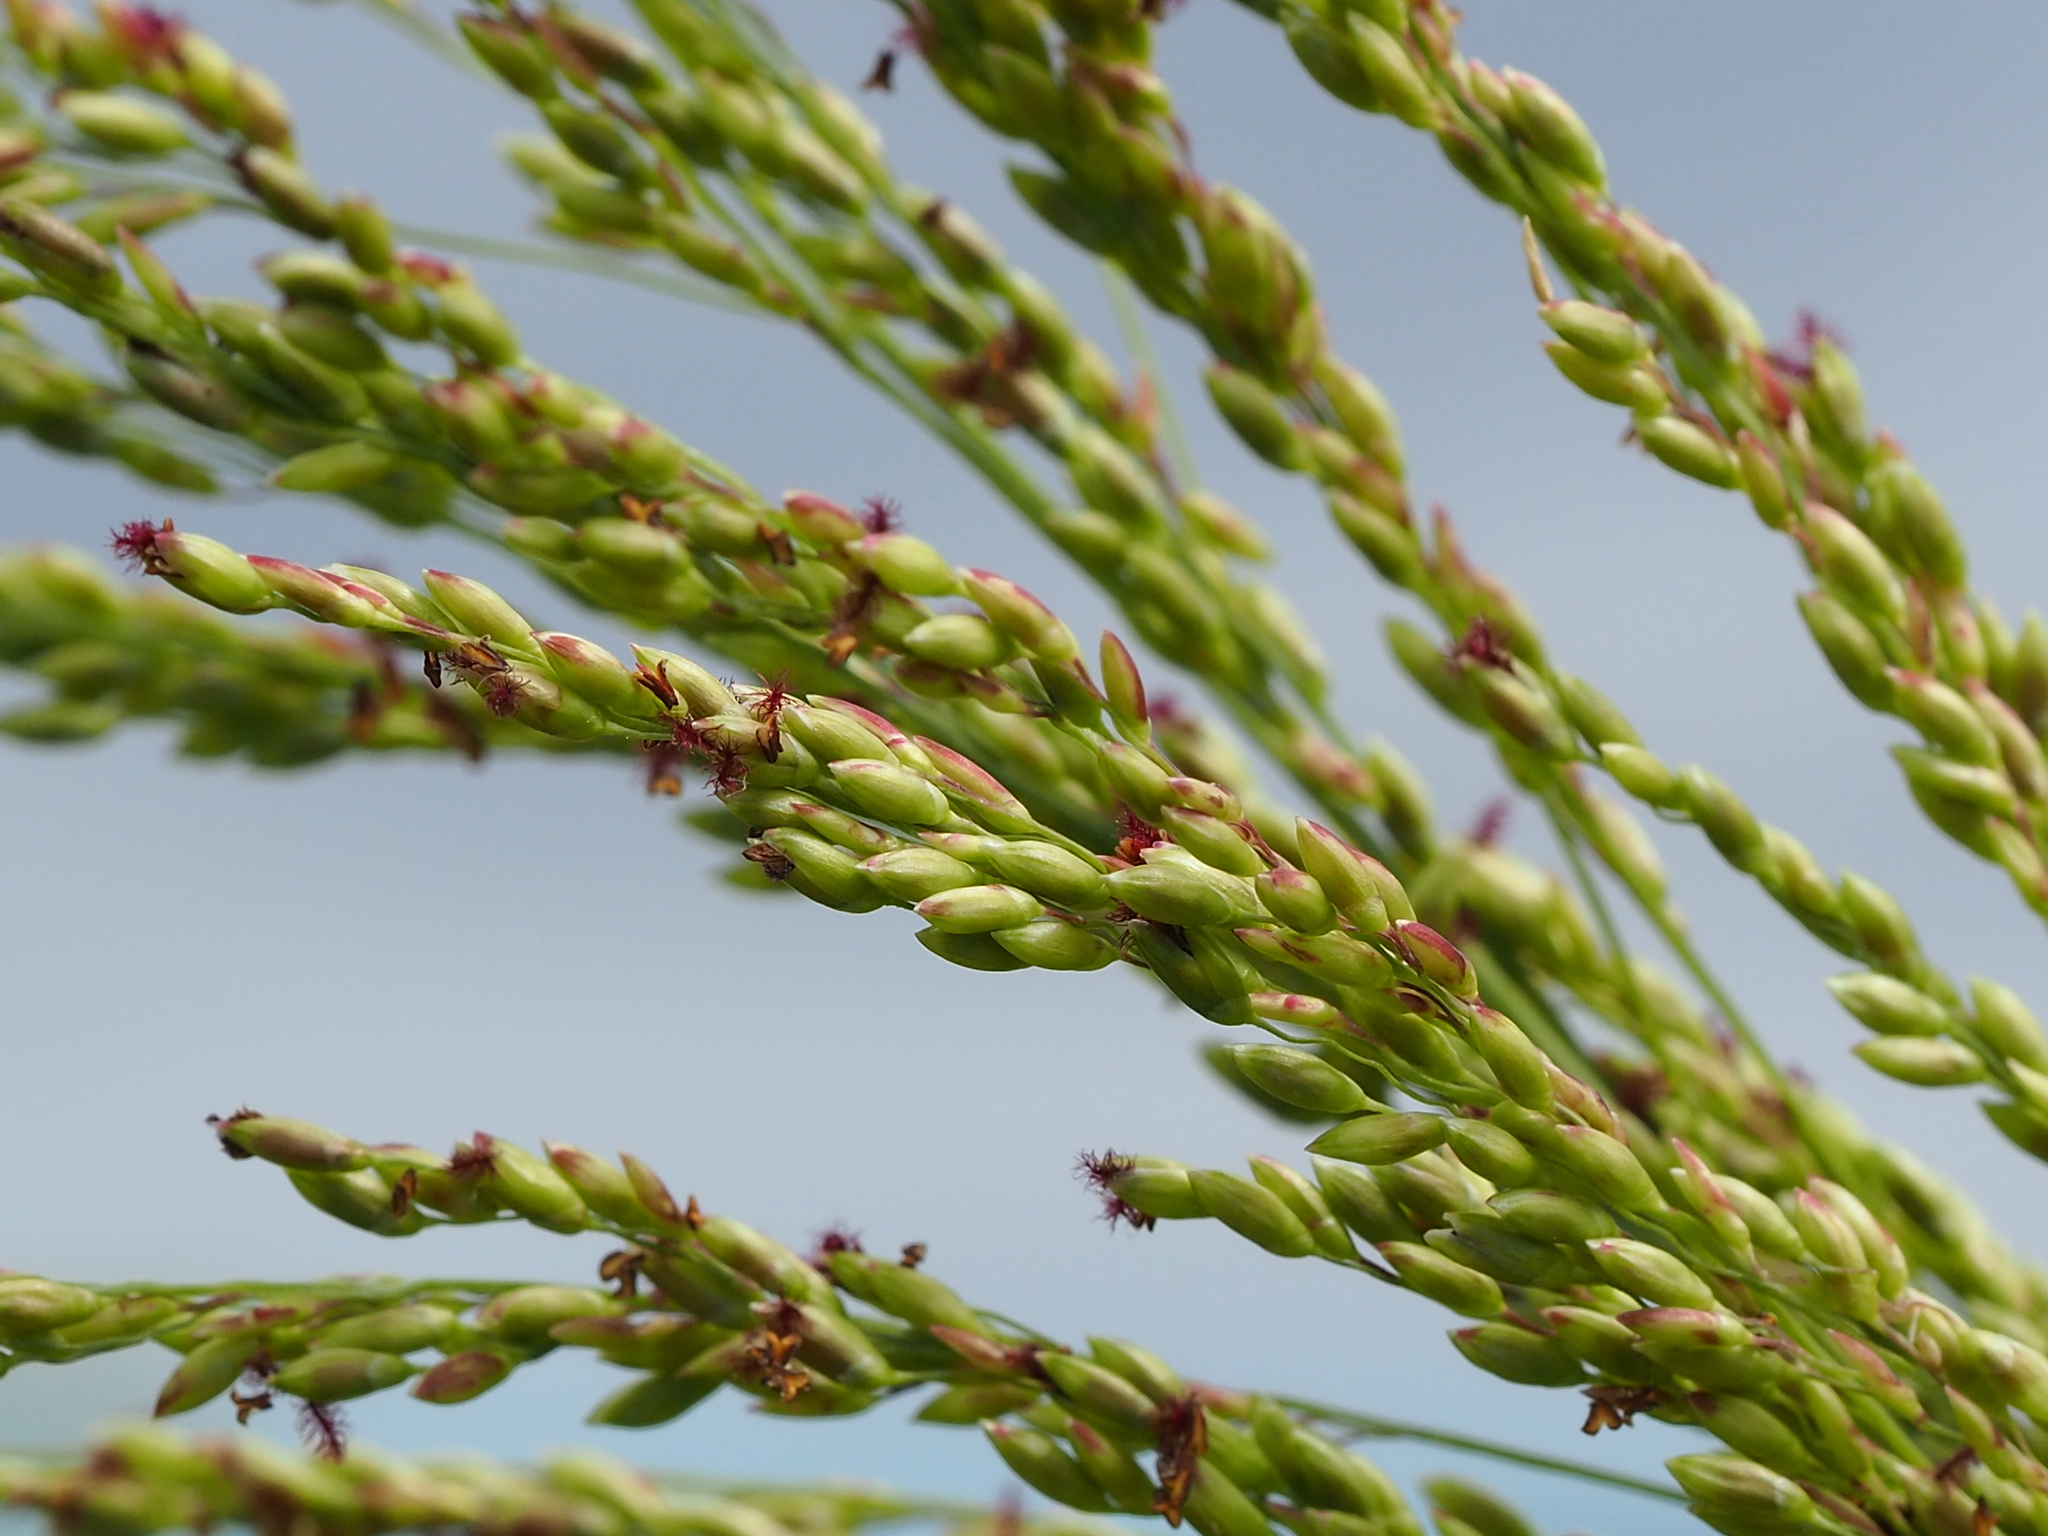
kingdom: Plantae
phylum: Tracheophyta
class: Liliopsida
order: Poales
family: Poaceae
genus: Megathyrsus
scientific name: Megathyrsus maximus
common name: Guineagrass
